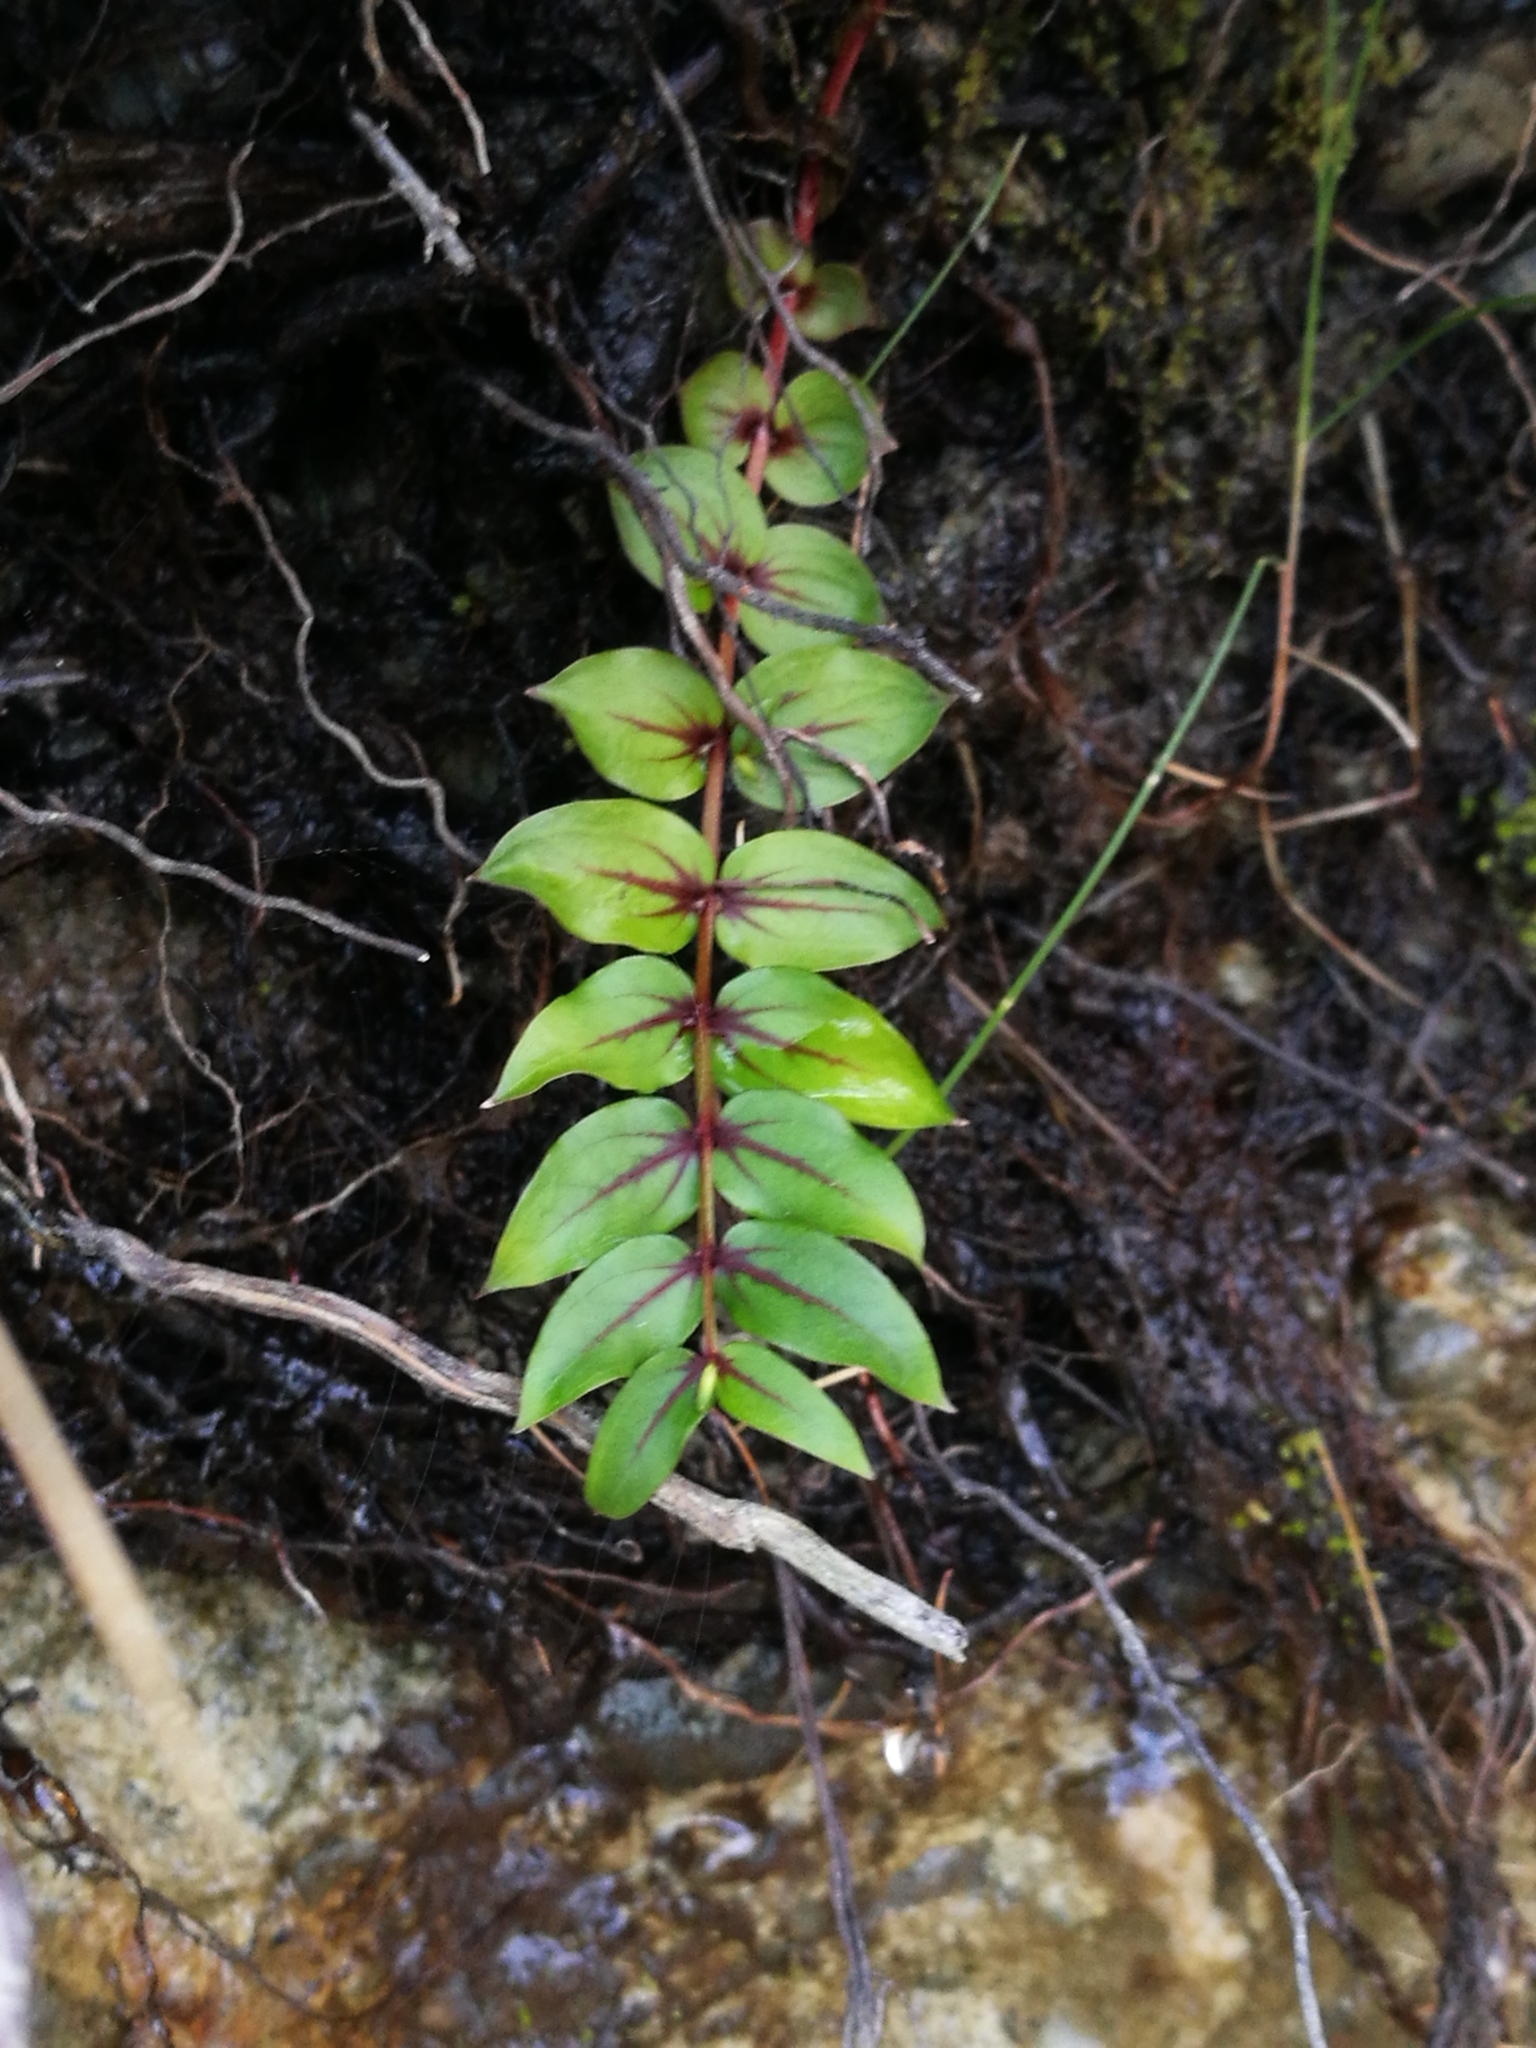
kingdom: Plantae
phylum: Tracheophyta
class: Magnoliopsida
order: Cucurbitales
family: Coriariaceae
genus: Coriaria
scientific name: Coriaria sarmentosa
